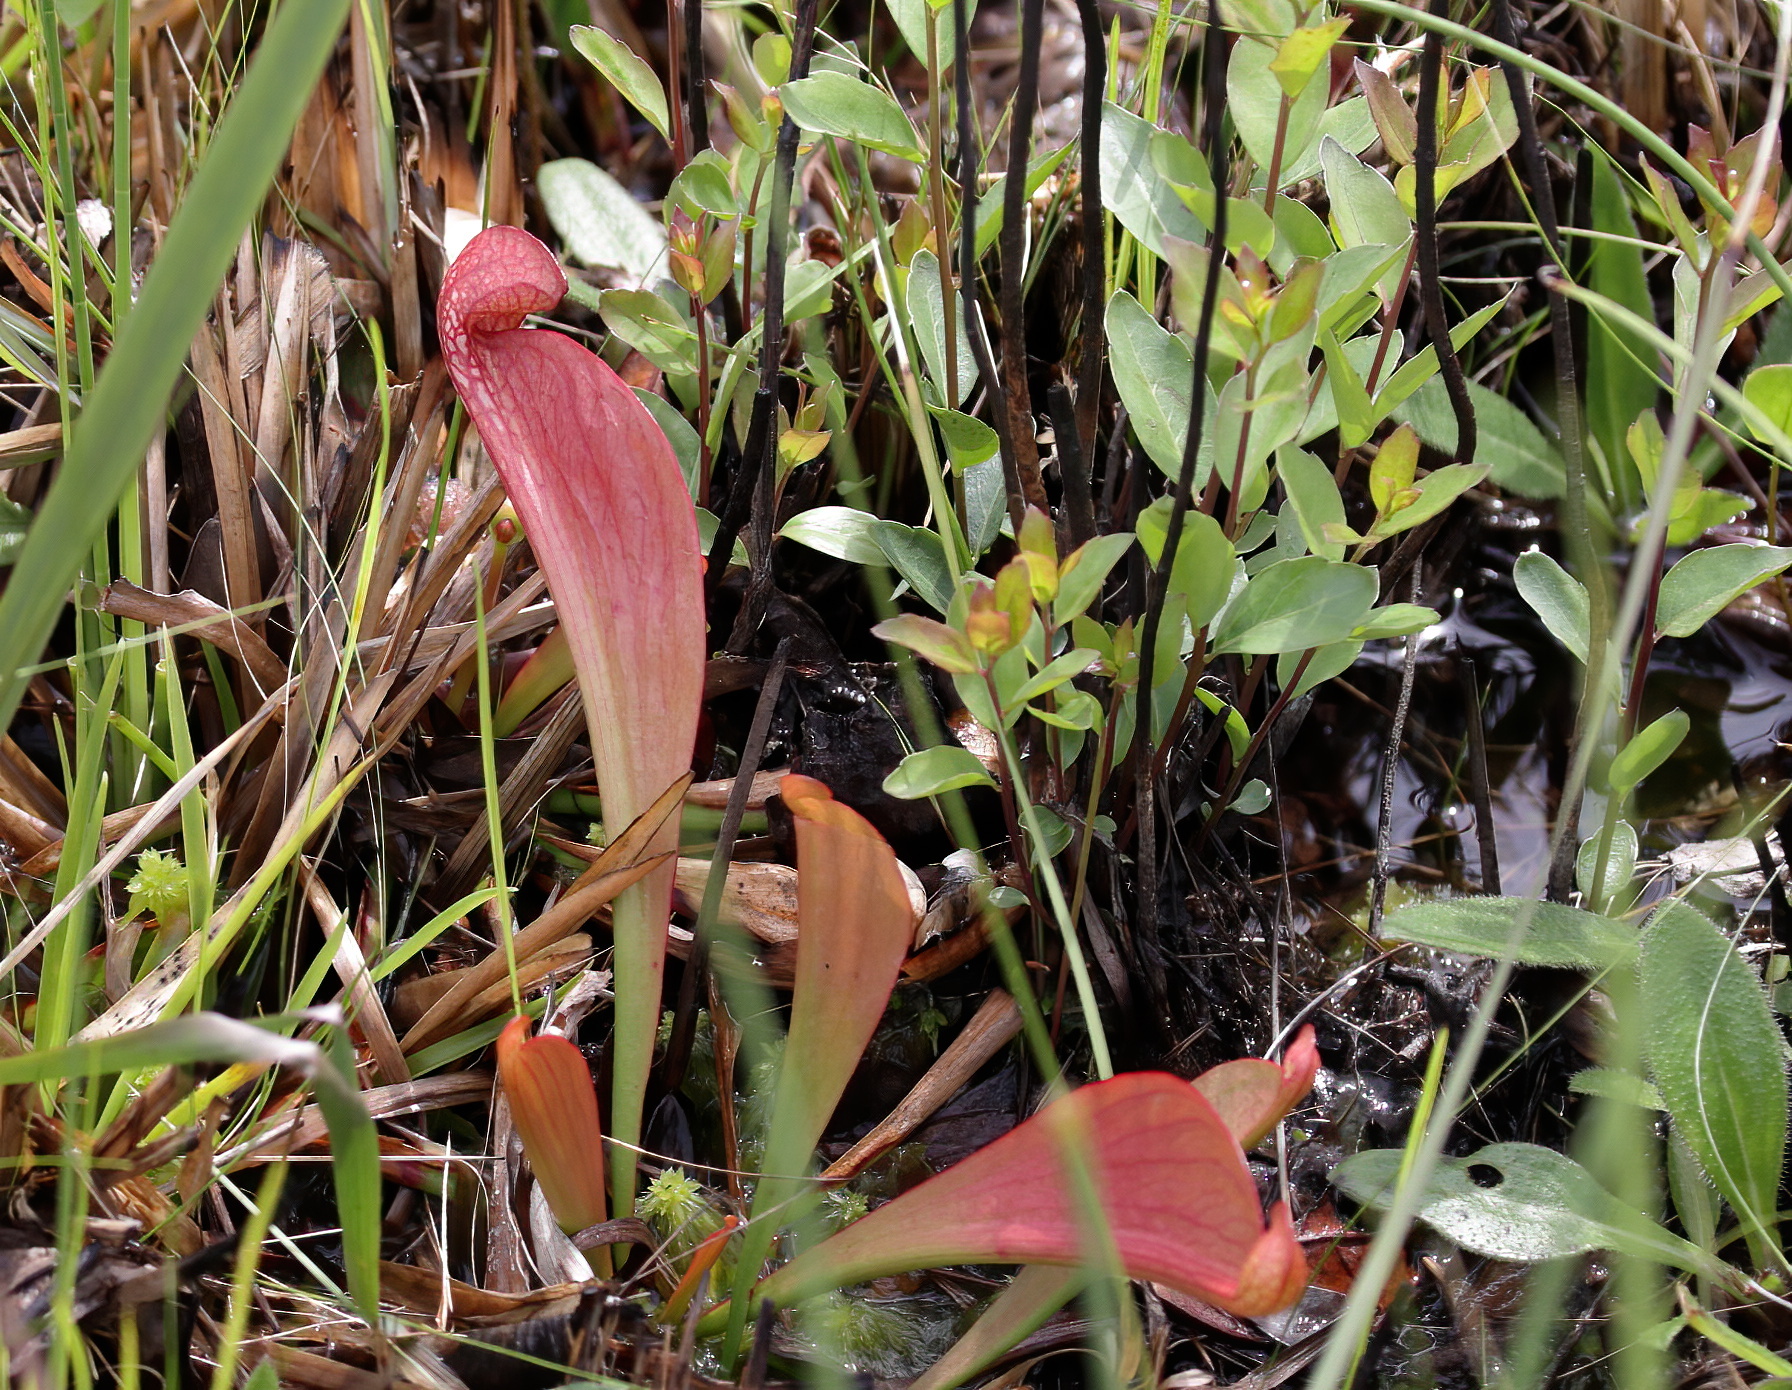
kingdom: Plantae
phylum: Tracheophyta
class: Magnoliopsida
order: Ericales
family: Sarraceniaceae
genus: Sarracenia
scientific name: Sarracenia psittacina
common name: Parrot pitcherplant
